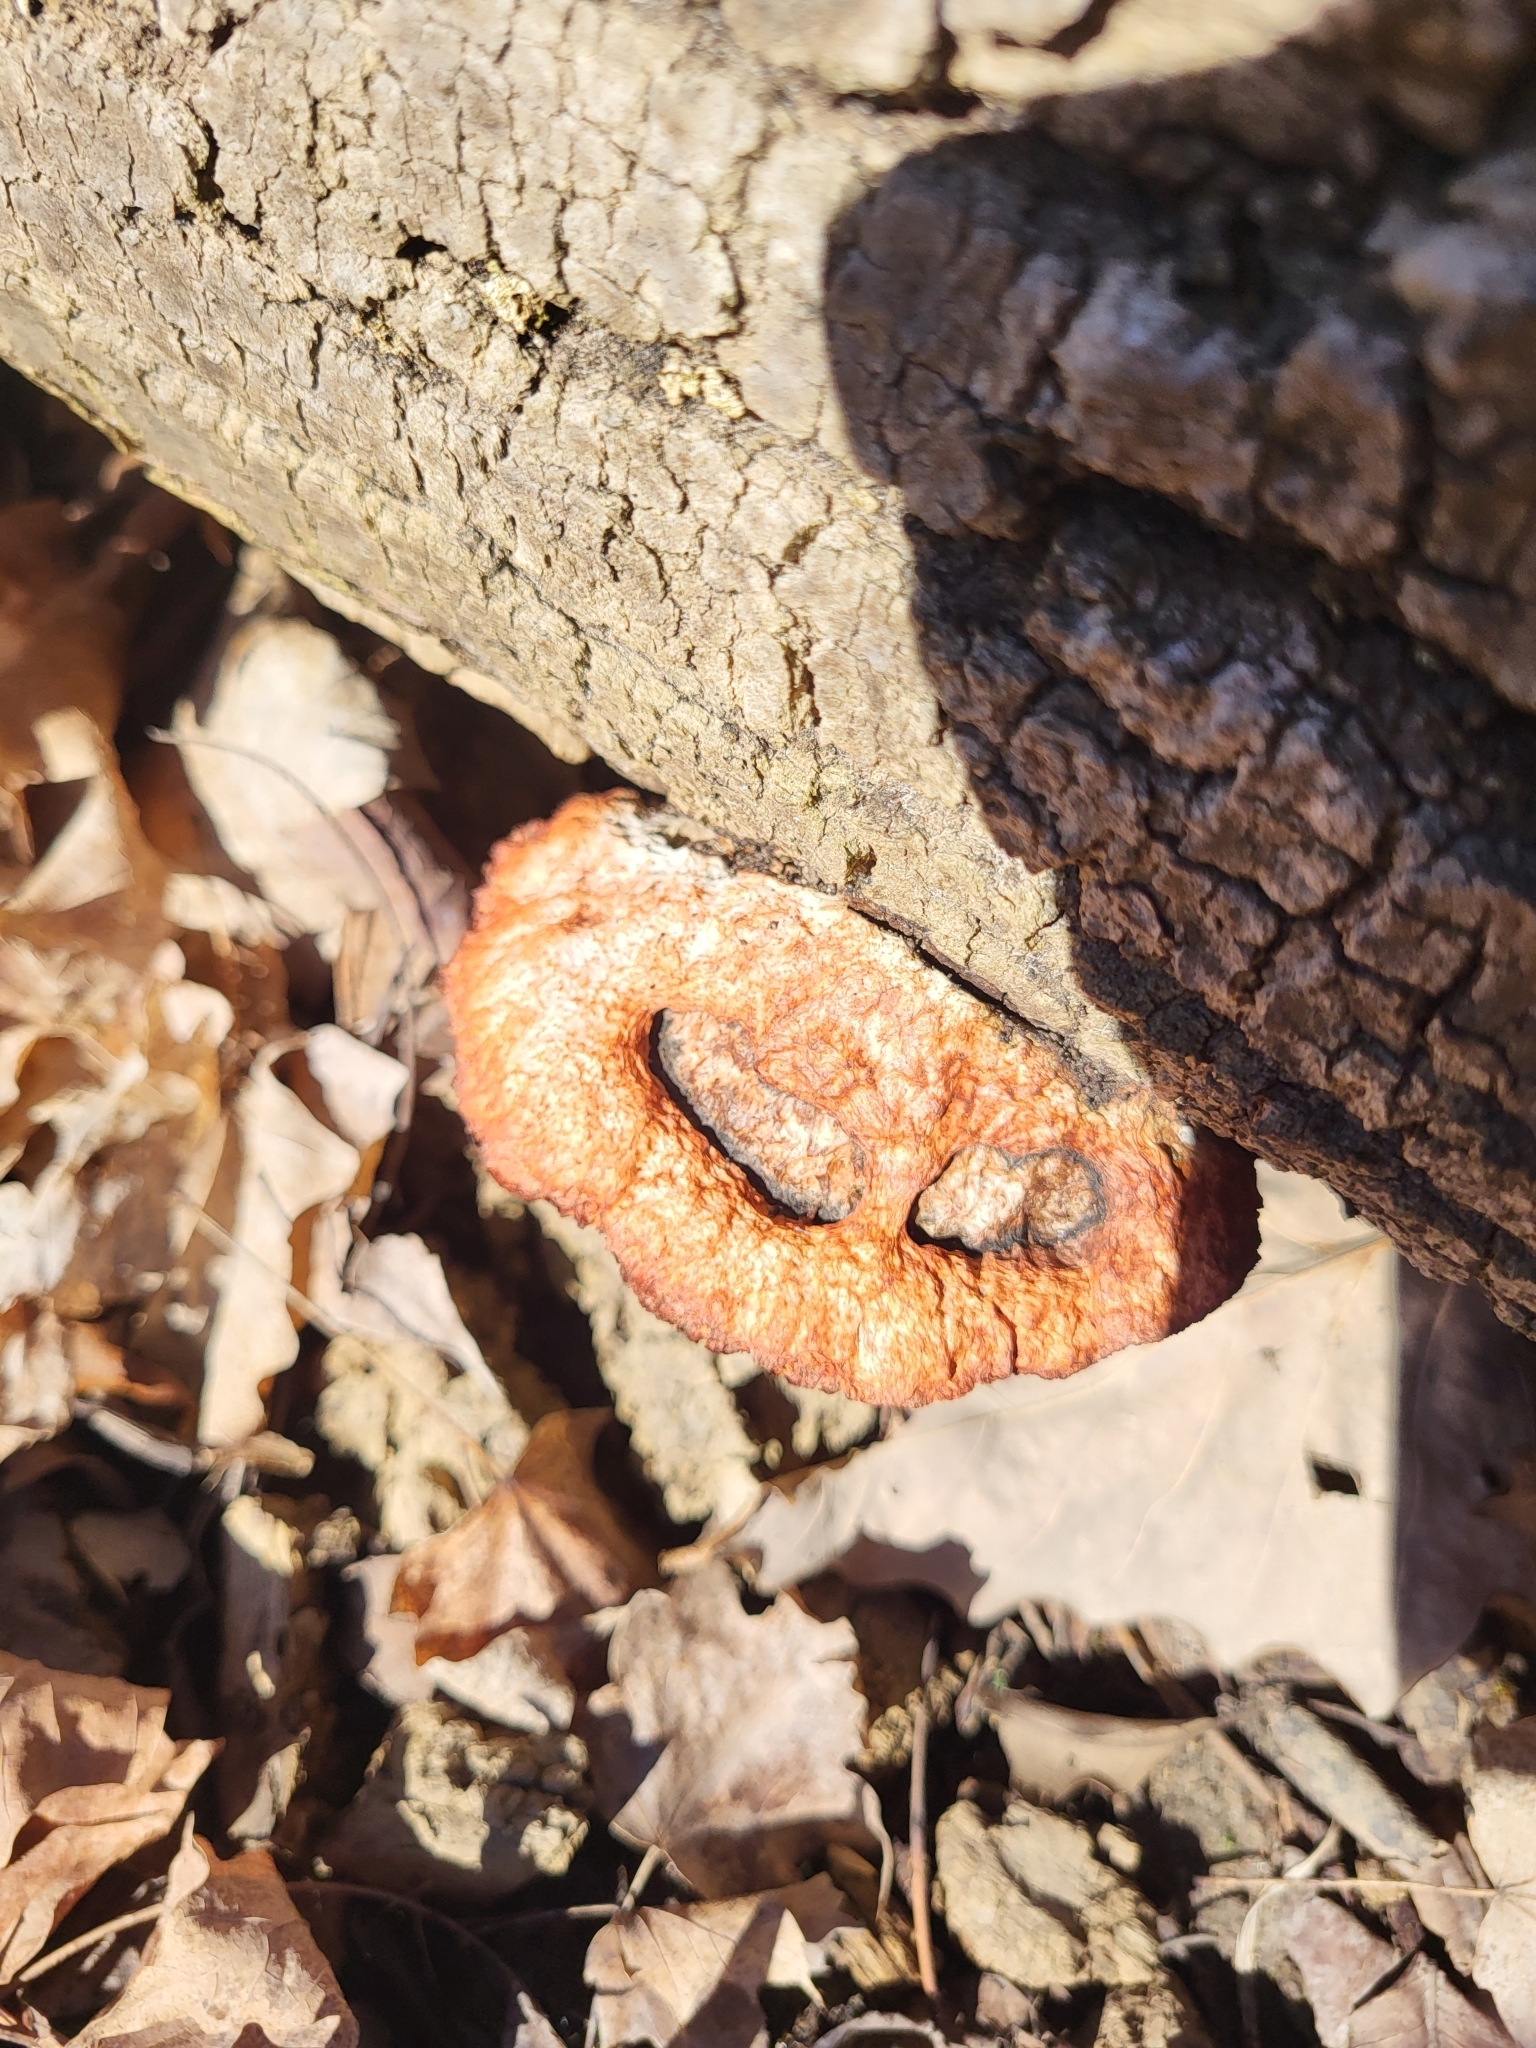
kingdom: Fungi
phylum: Basidiomycota
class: Agaricomycetes
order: Polyporales
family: Polyporaceae
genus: Trametes
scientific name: Trametes cinnabarina
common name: Northern cinnabar polypore
